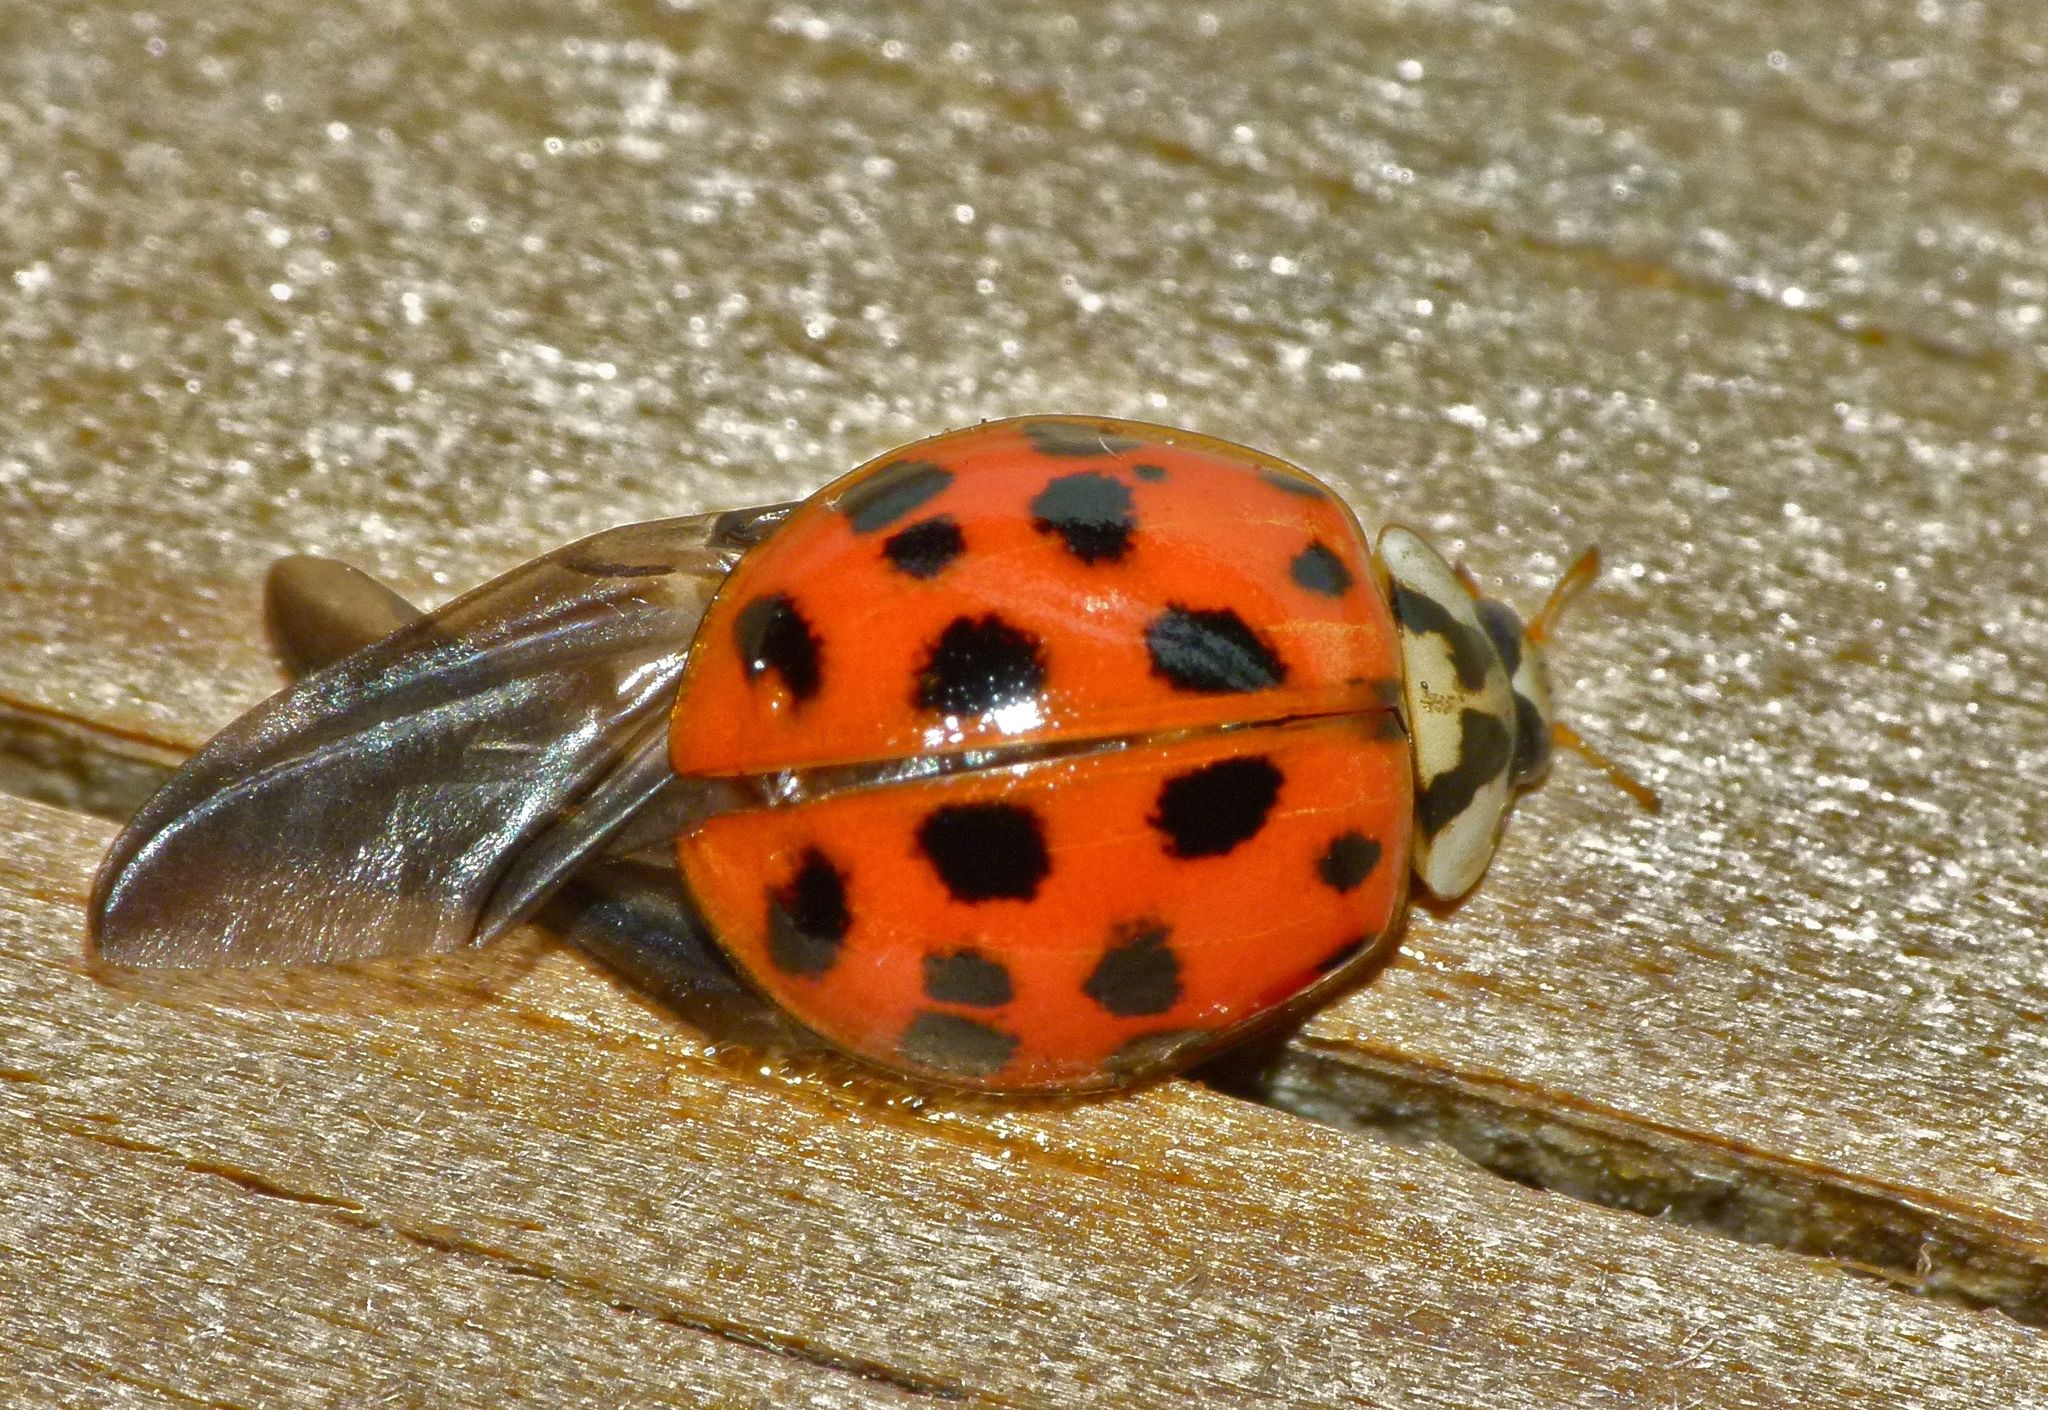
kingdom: Animalia
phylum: Arthropoda
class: Insecta
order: Coleoptera
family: Coccinellidae
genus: Harmonia
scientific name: Harmonia axyridis
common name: Harlequin ladybird
